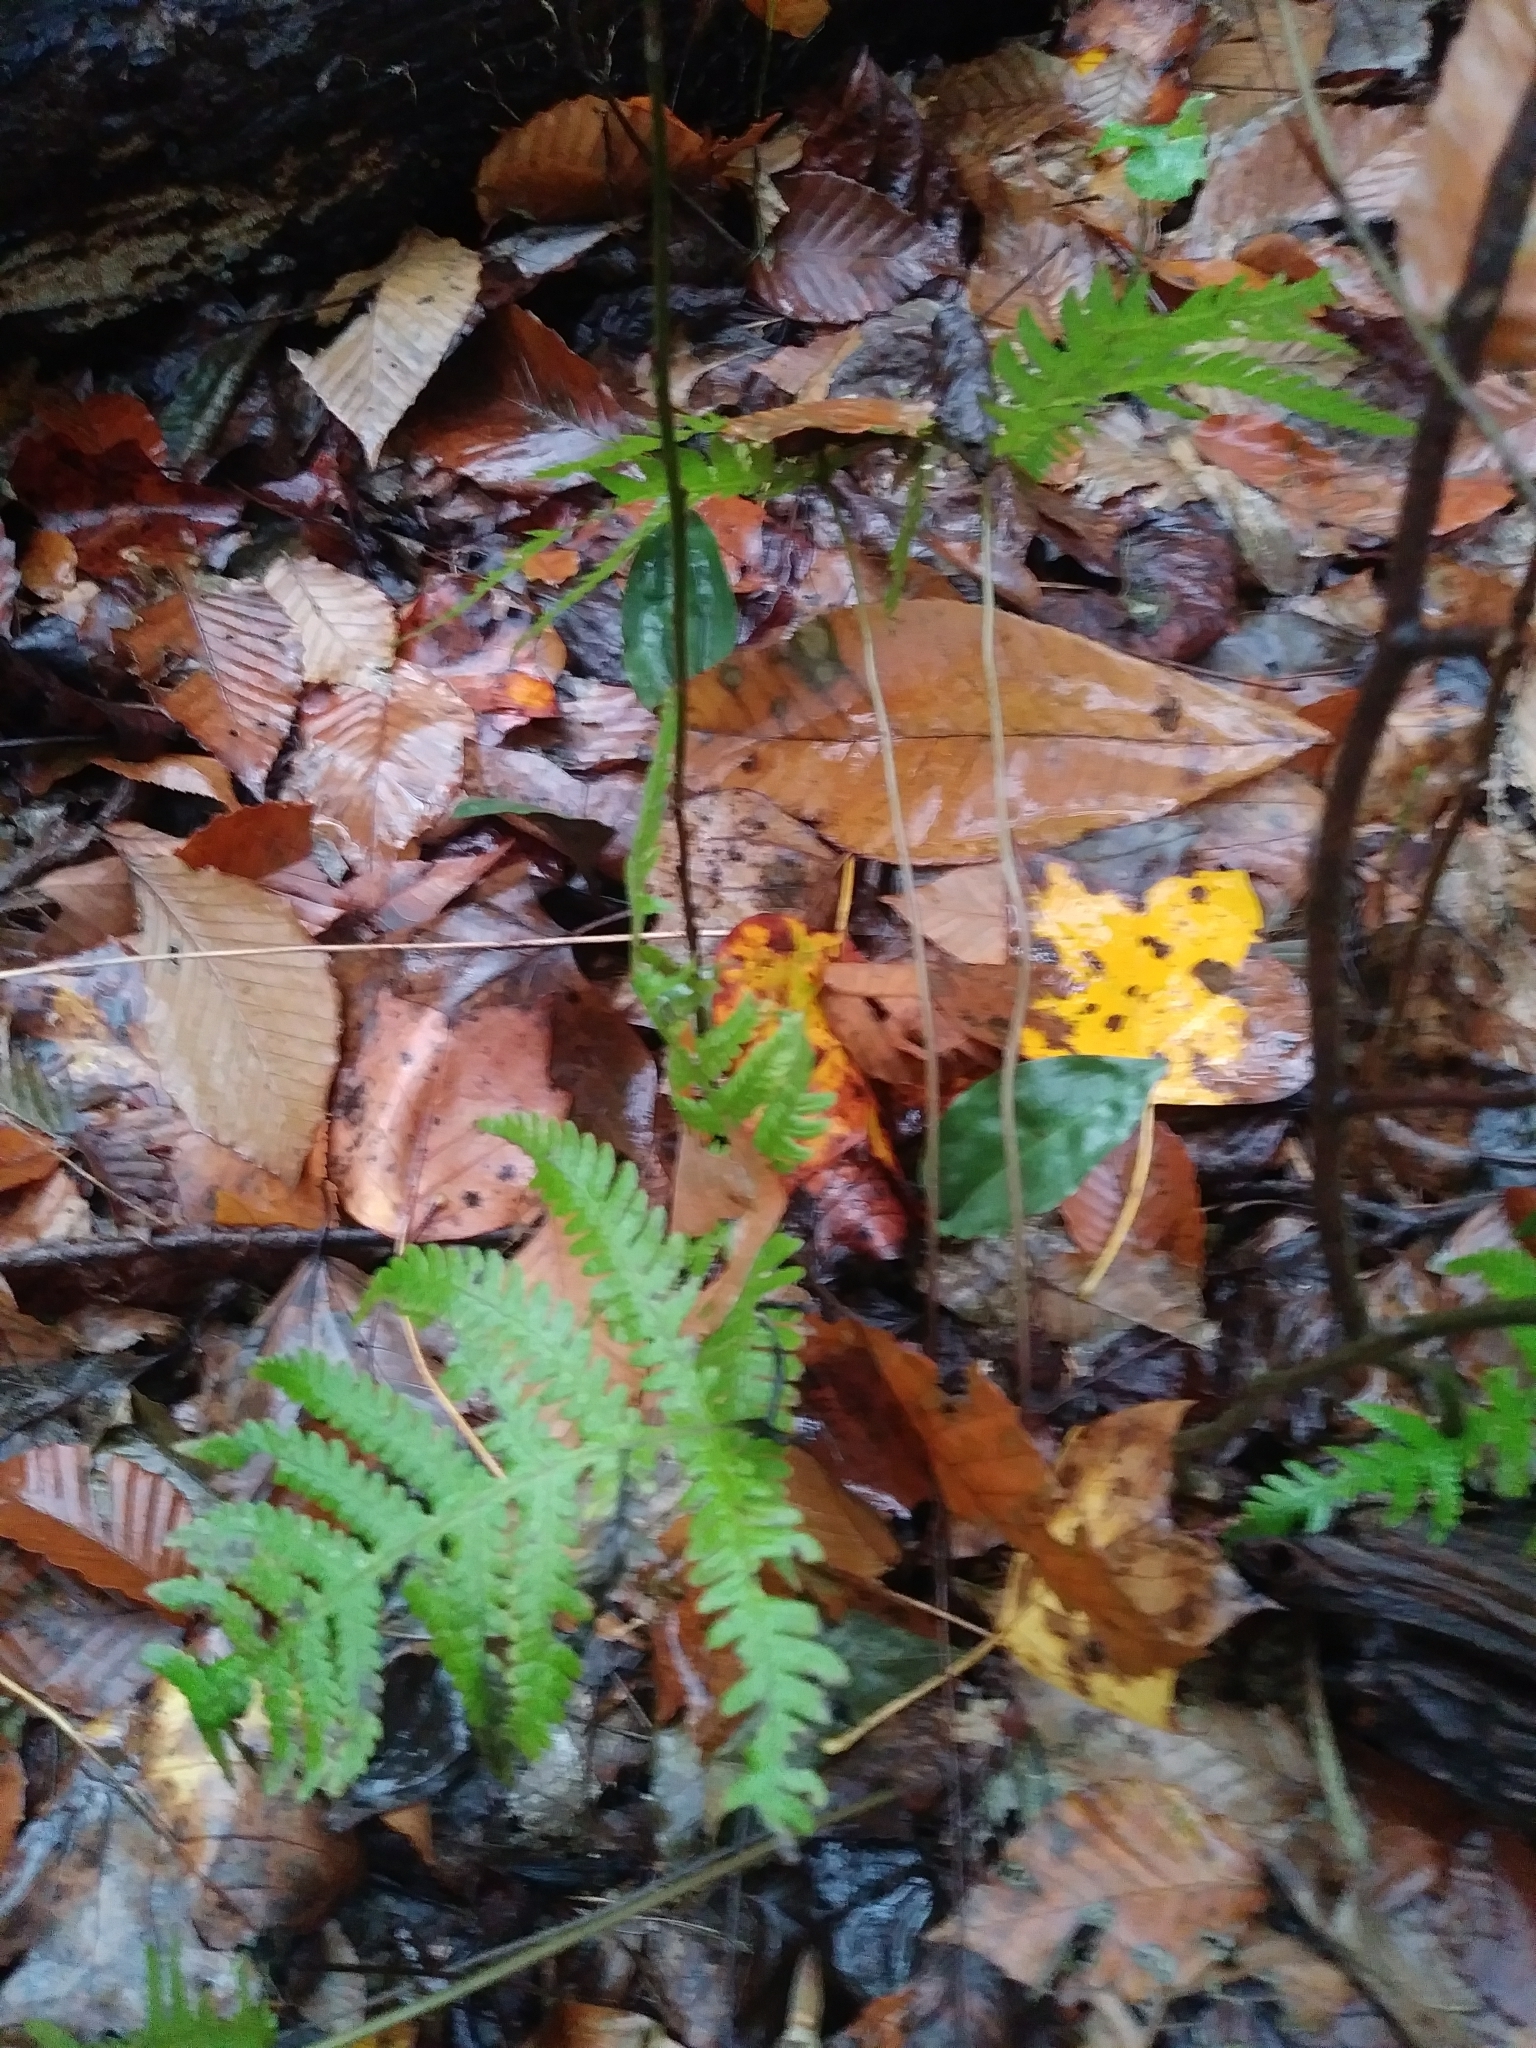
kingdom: Plantae
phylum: Tracheophyta
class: Liliopsida
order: Asparagales
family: Orchidaceae
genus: Tipularia
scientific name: Tipularia discolor
